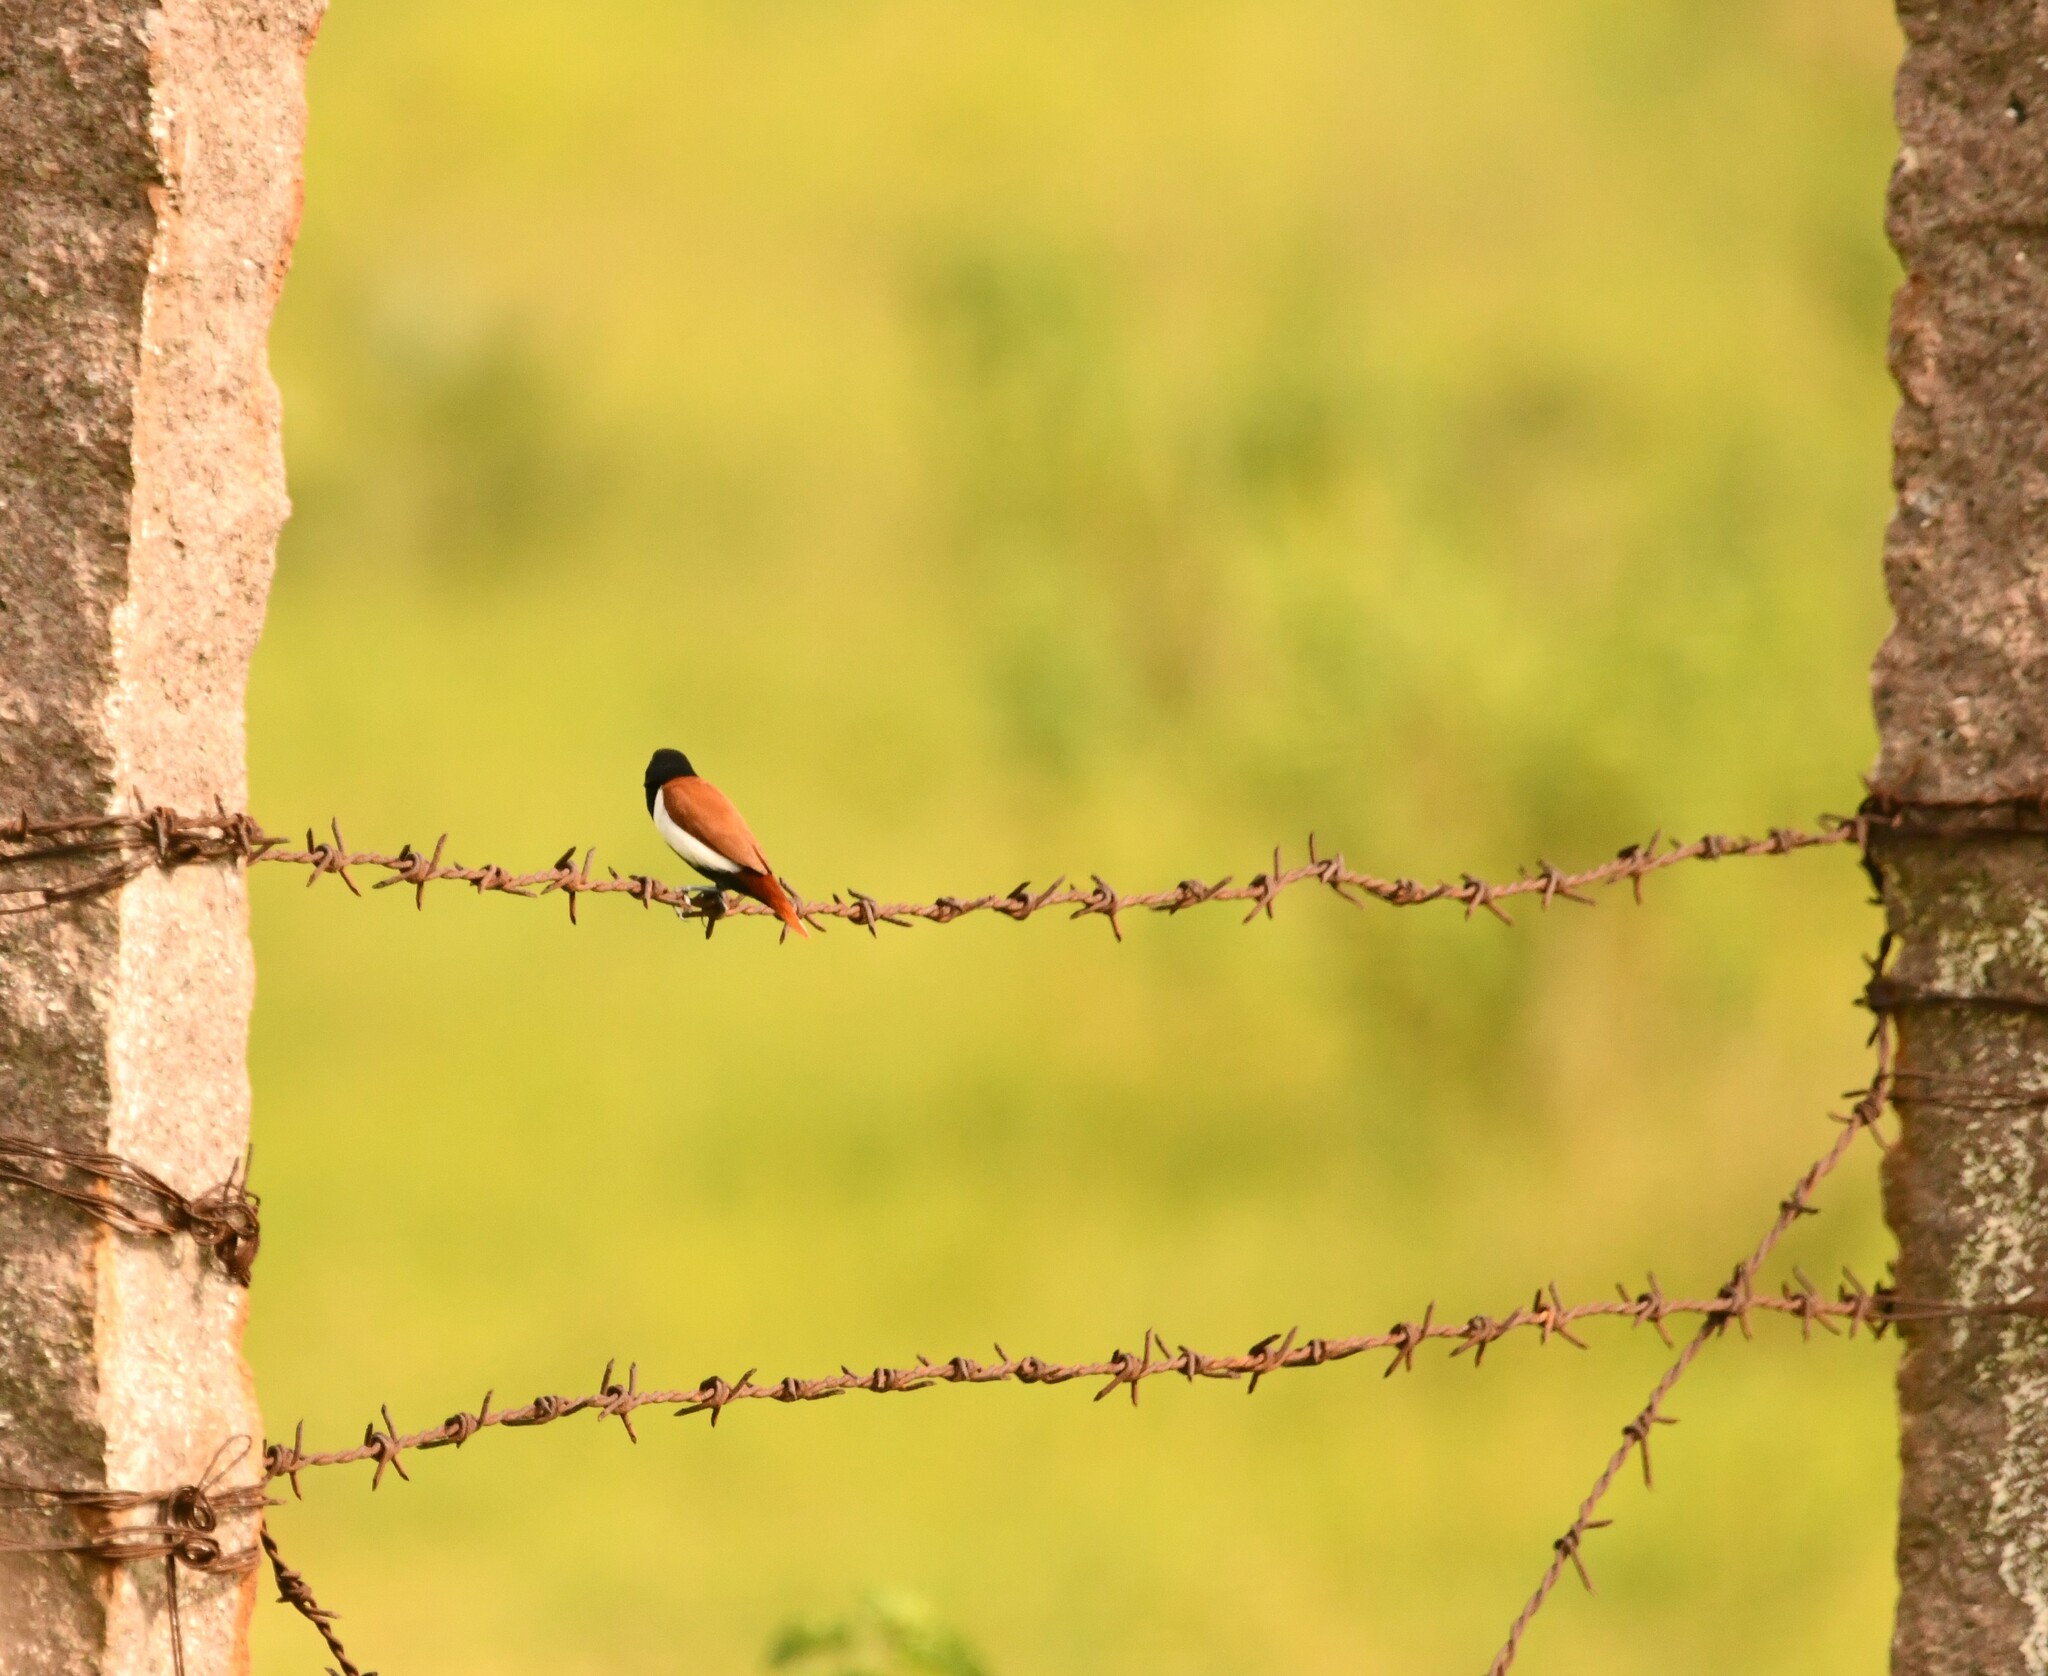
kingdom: Animalia
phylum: Chordata
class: Aves
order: Passeriformes
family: Estrildidae
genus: Lonchura
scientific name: Lonchura malacca
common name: Tricolored munia
